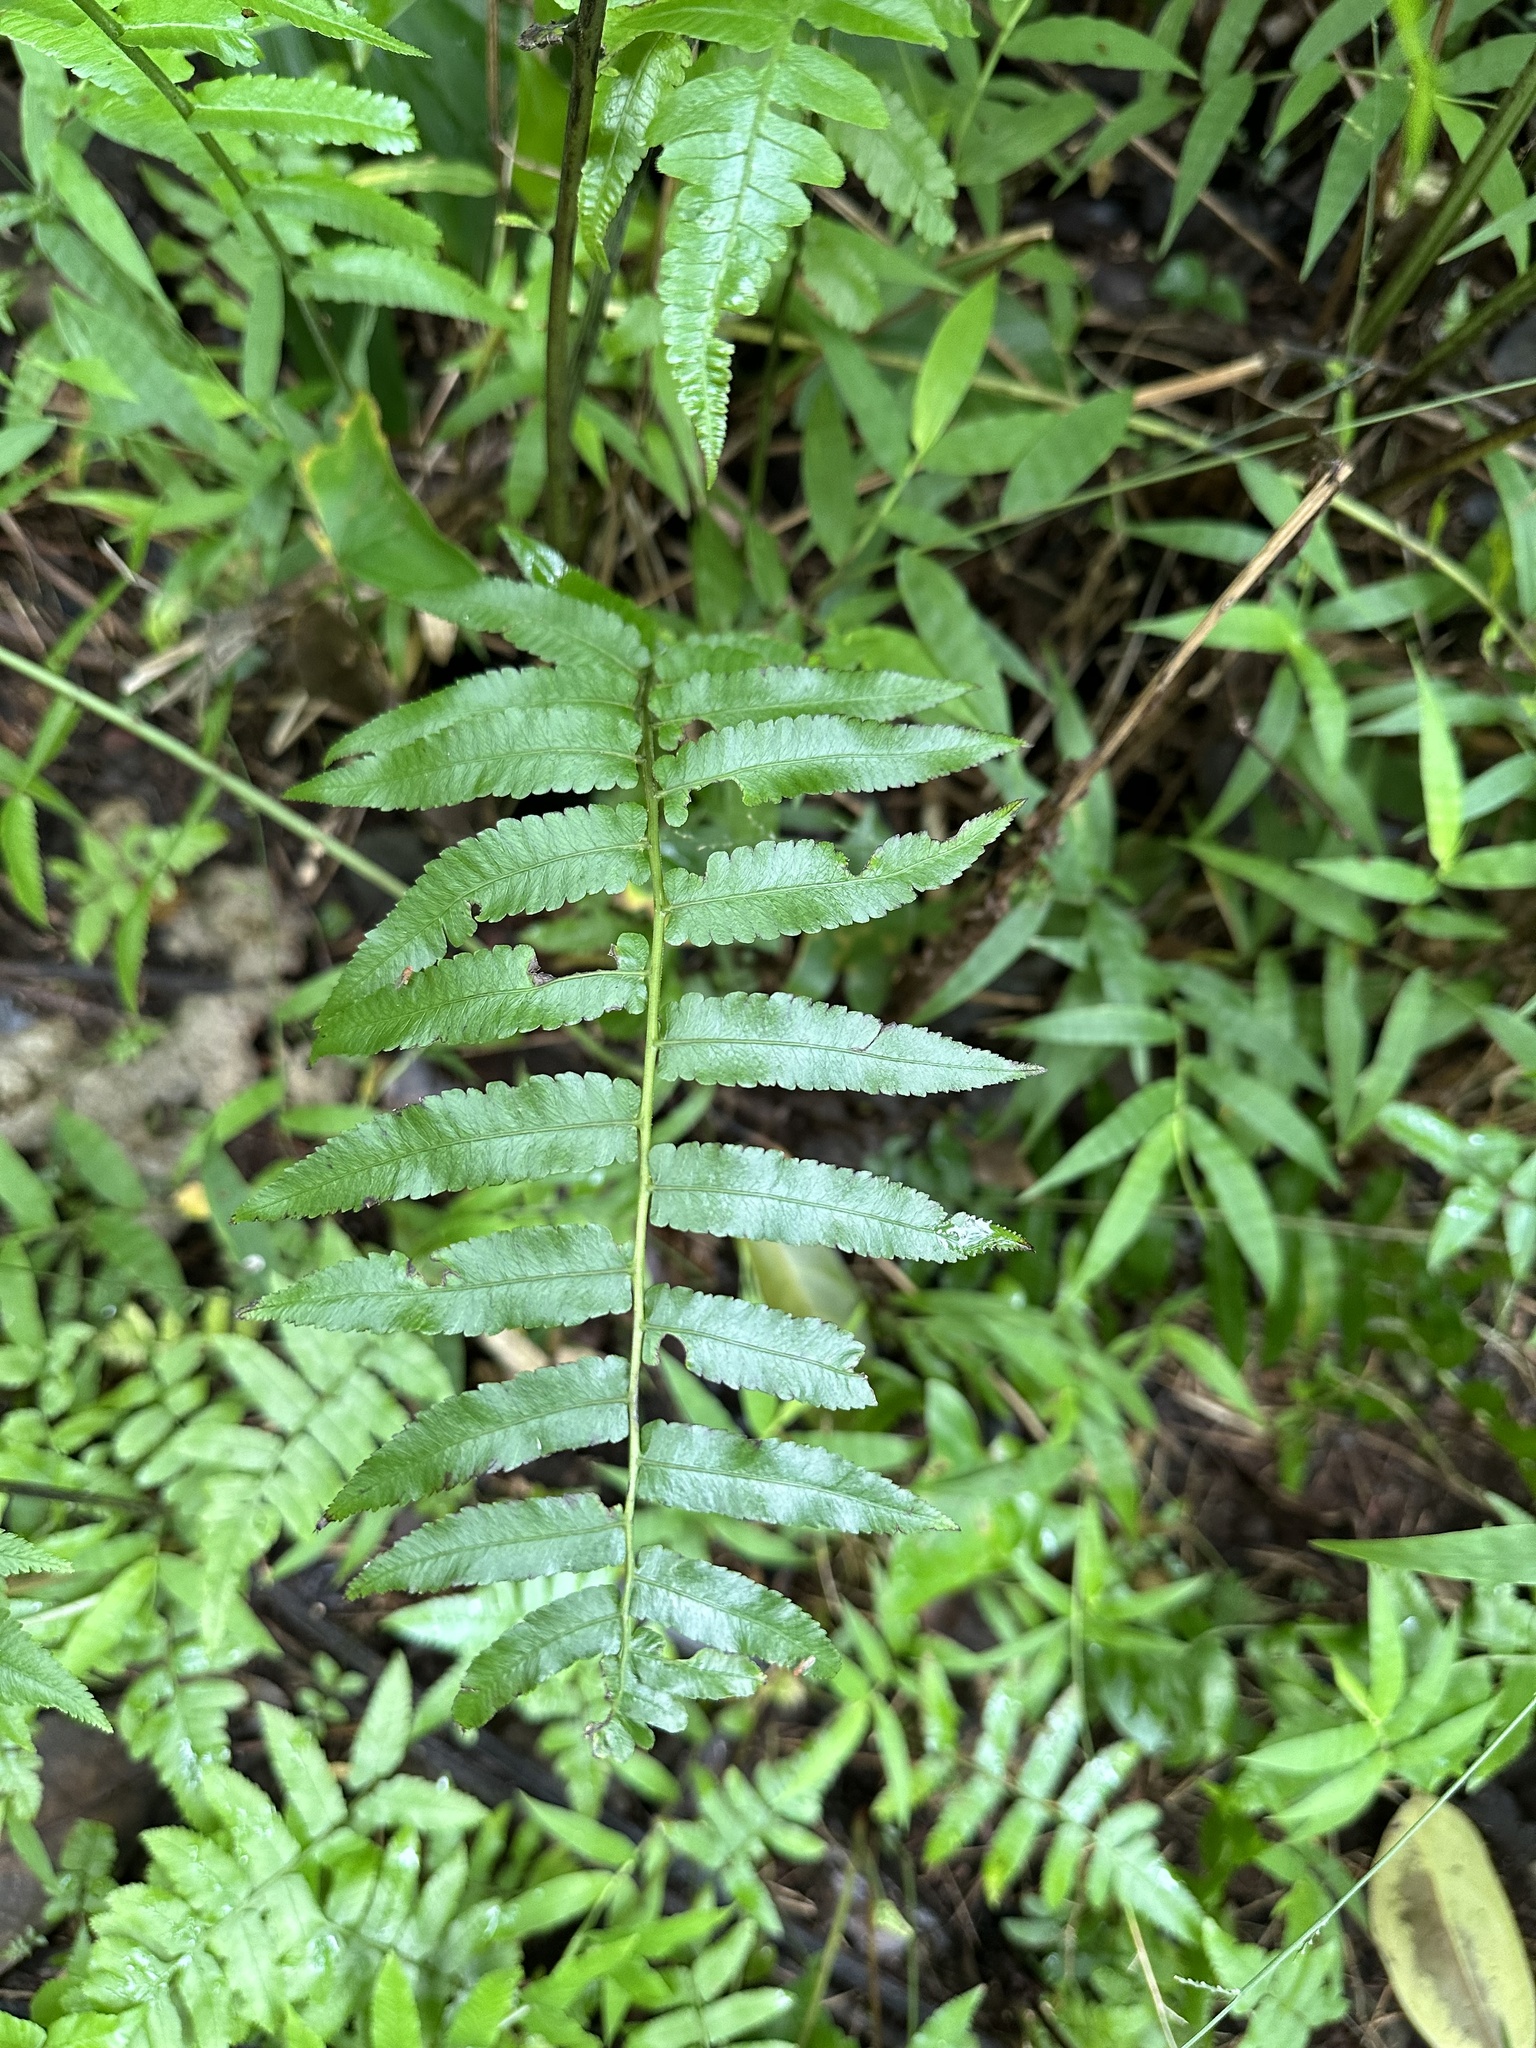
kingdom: Plantae
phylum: Tracheophyta
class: Polypodiopsida
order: Polypodiales
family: Athyriaceae
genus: Diplazium
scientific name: Diplazium esculentum
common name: Vegetable fern
